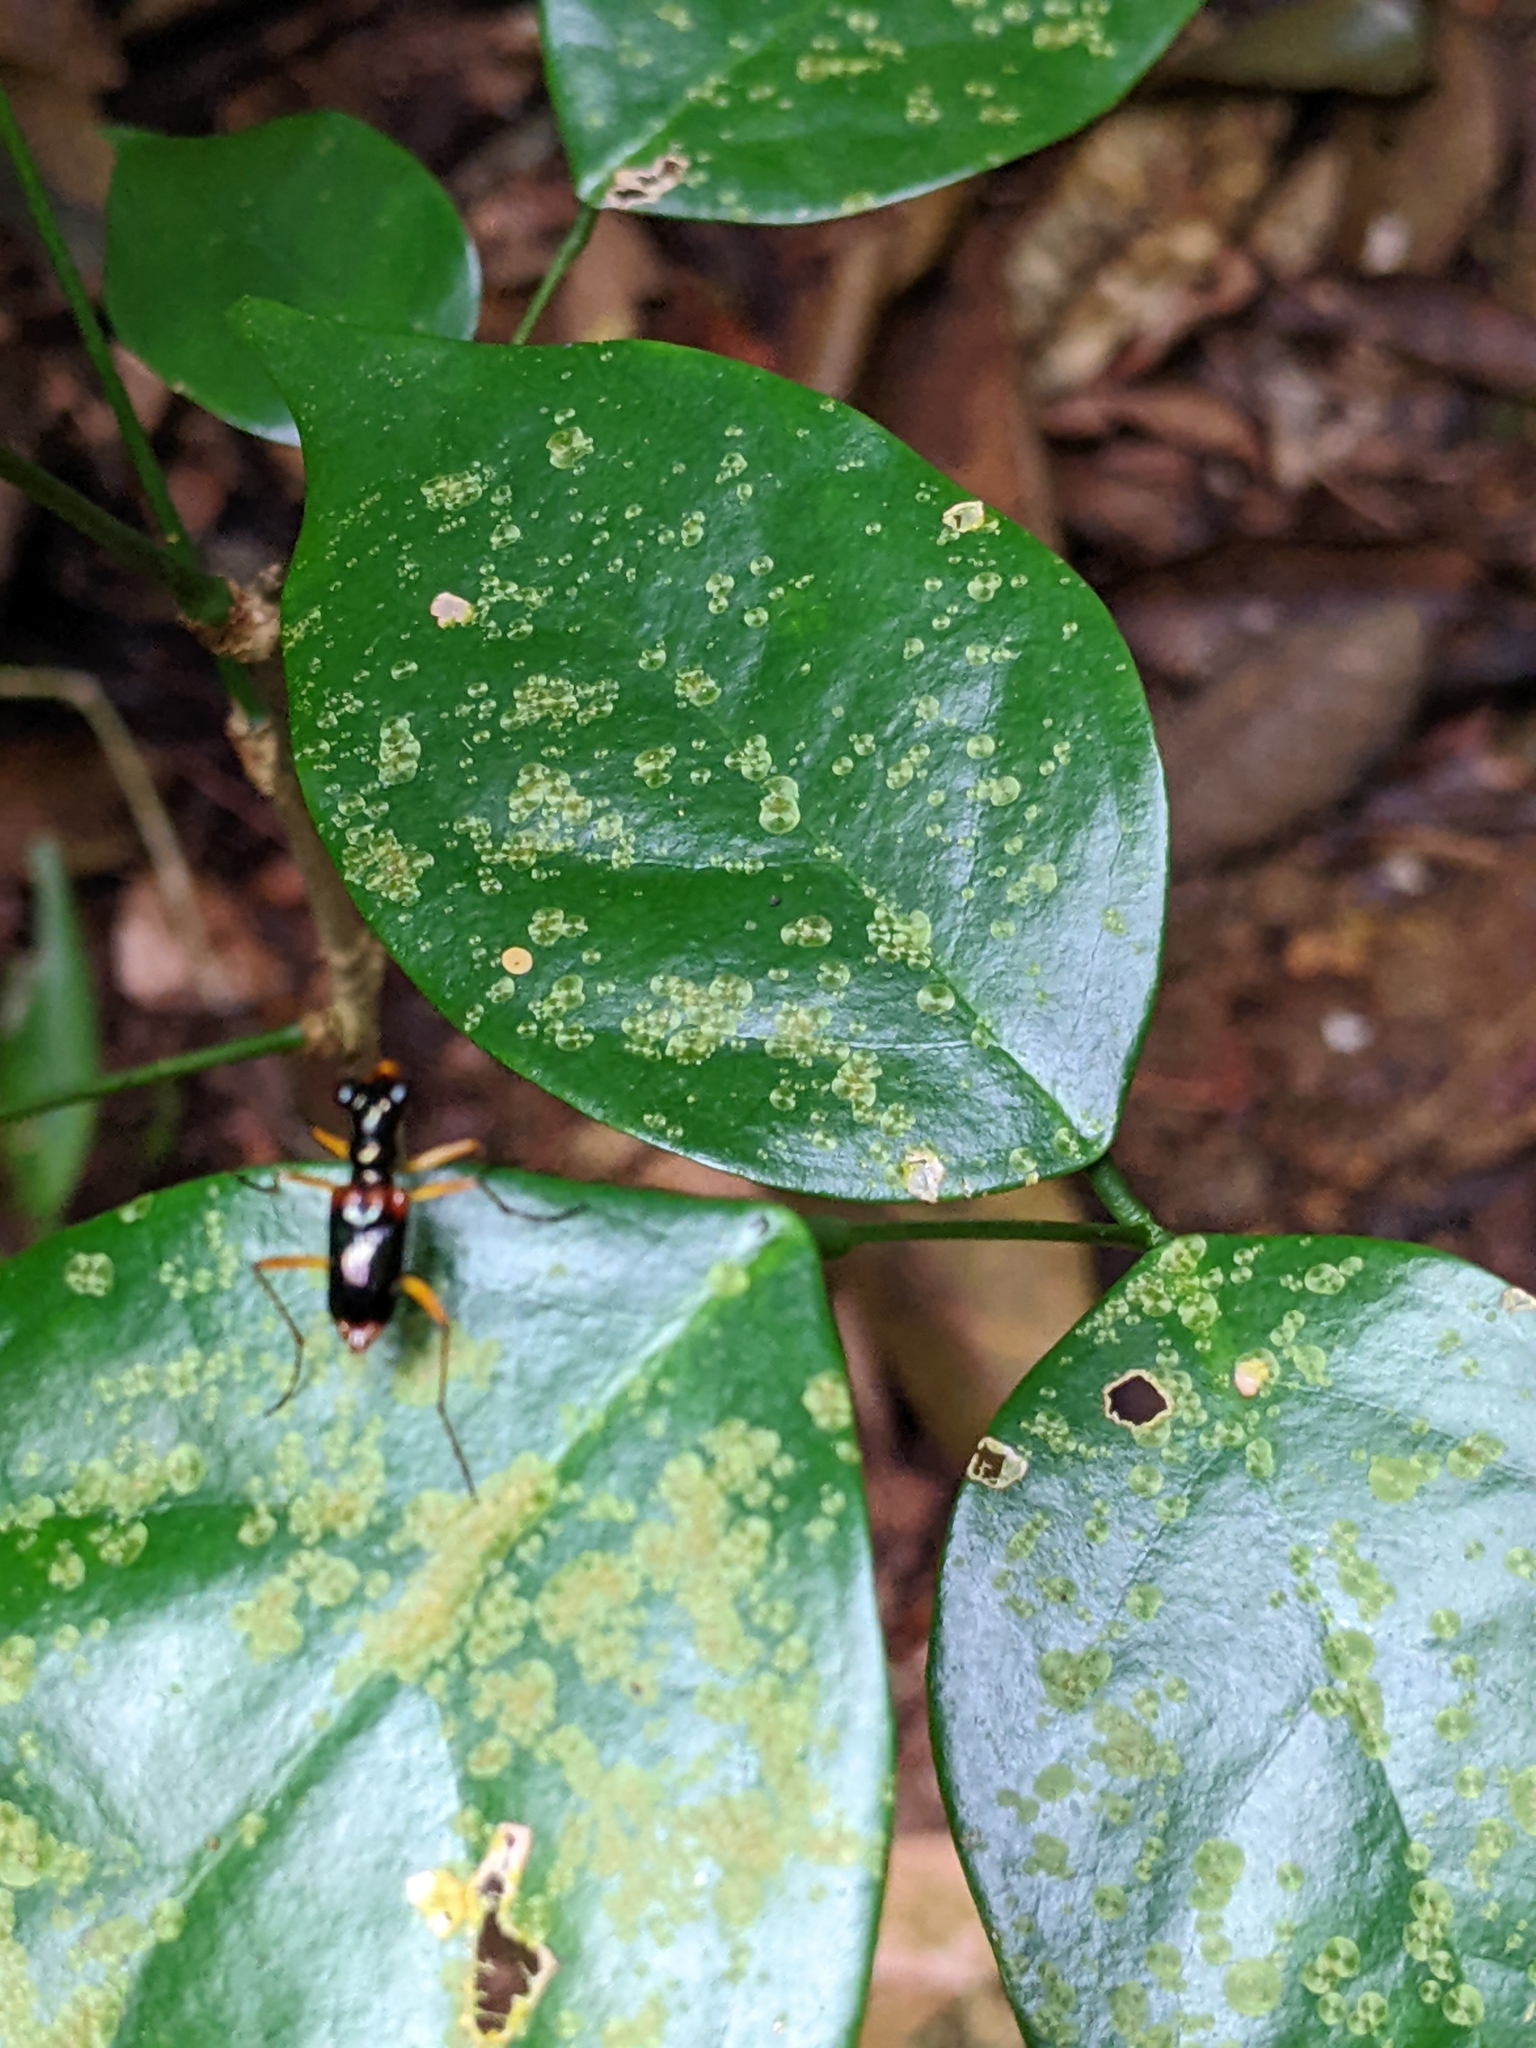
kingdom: Animalia
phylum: Arthropoda
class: Insecta
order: Coleoptera
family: Carabidae
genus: Therates
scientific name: Therates dimidiatus
